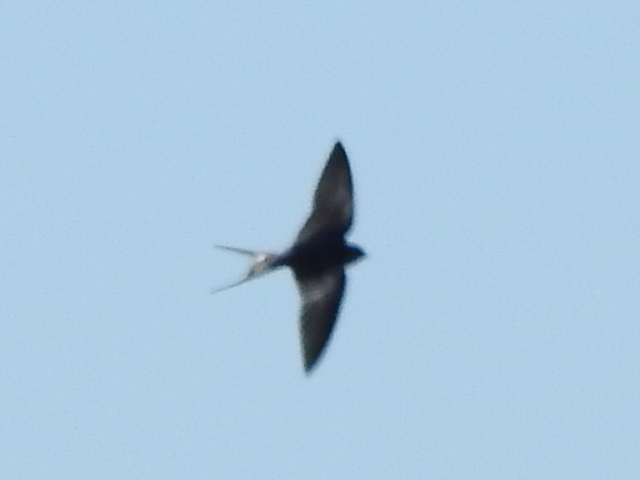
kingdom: Animalia
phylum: Chordata
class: Aves
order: Passeriformes
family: Hirundinidae
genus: Hirundo
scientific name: Hirundo rustica
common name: Barn swallow
